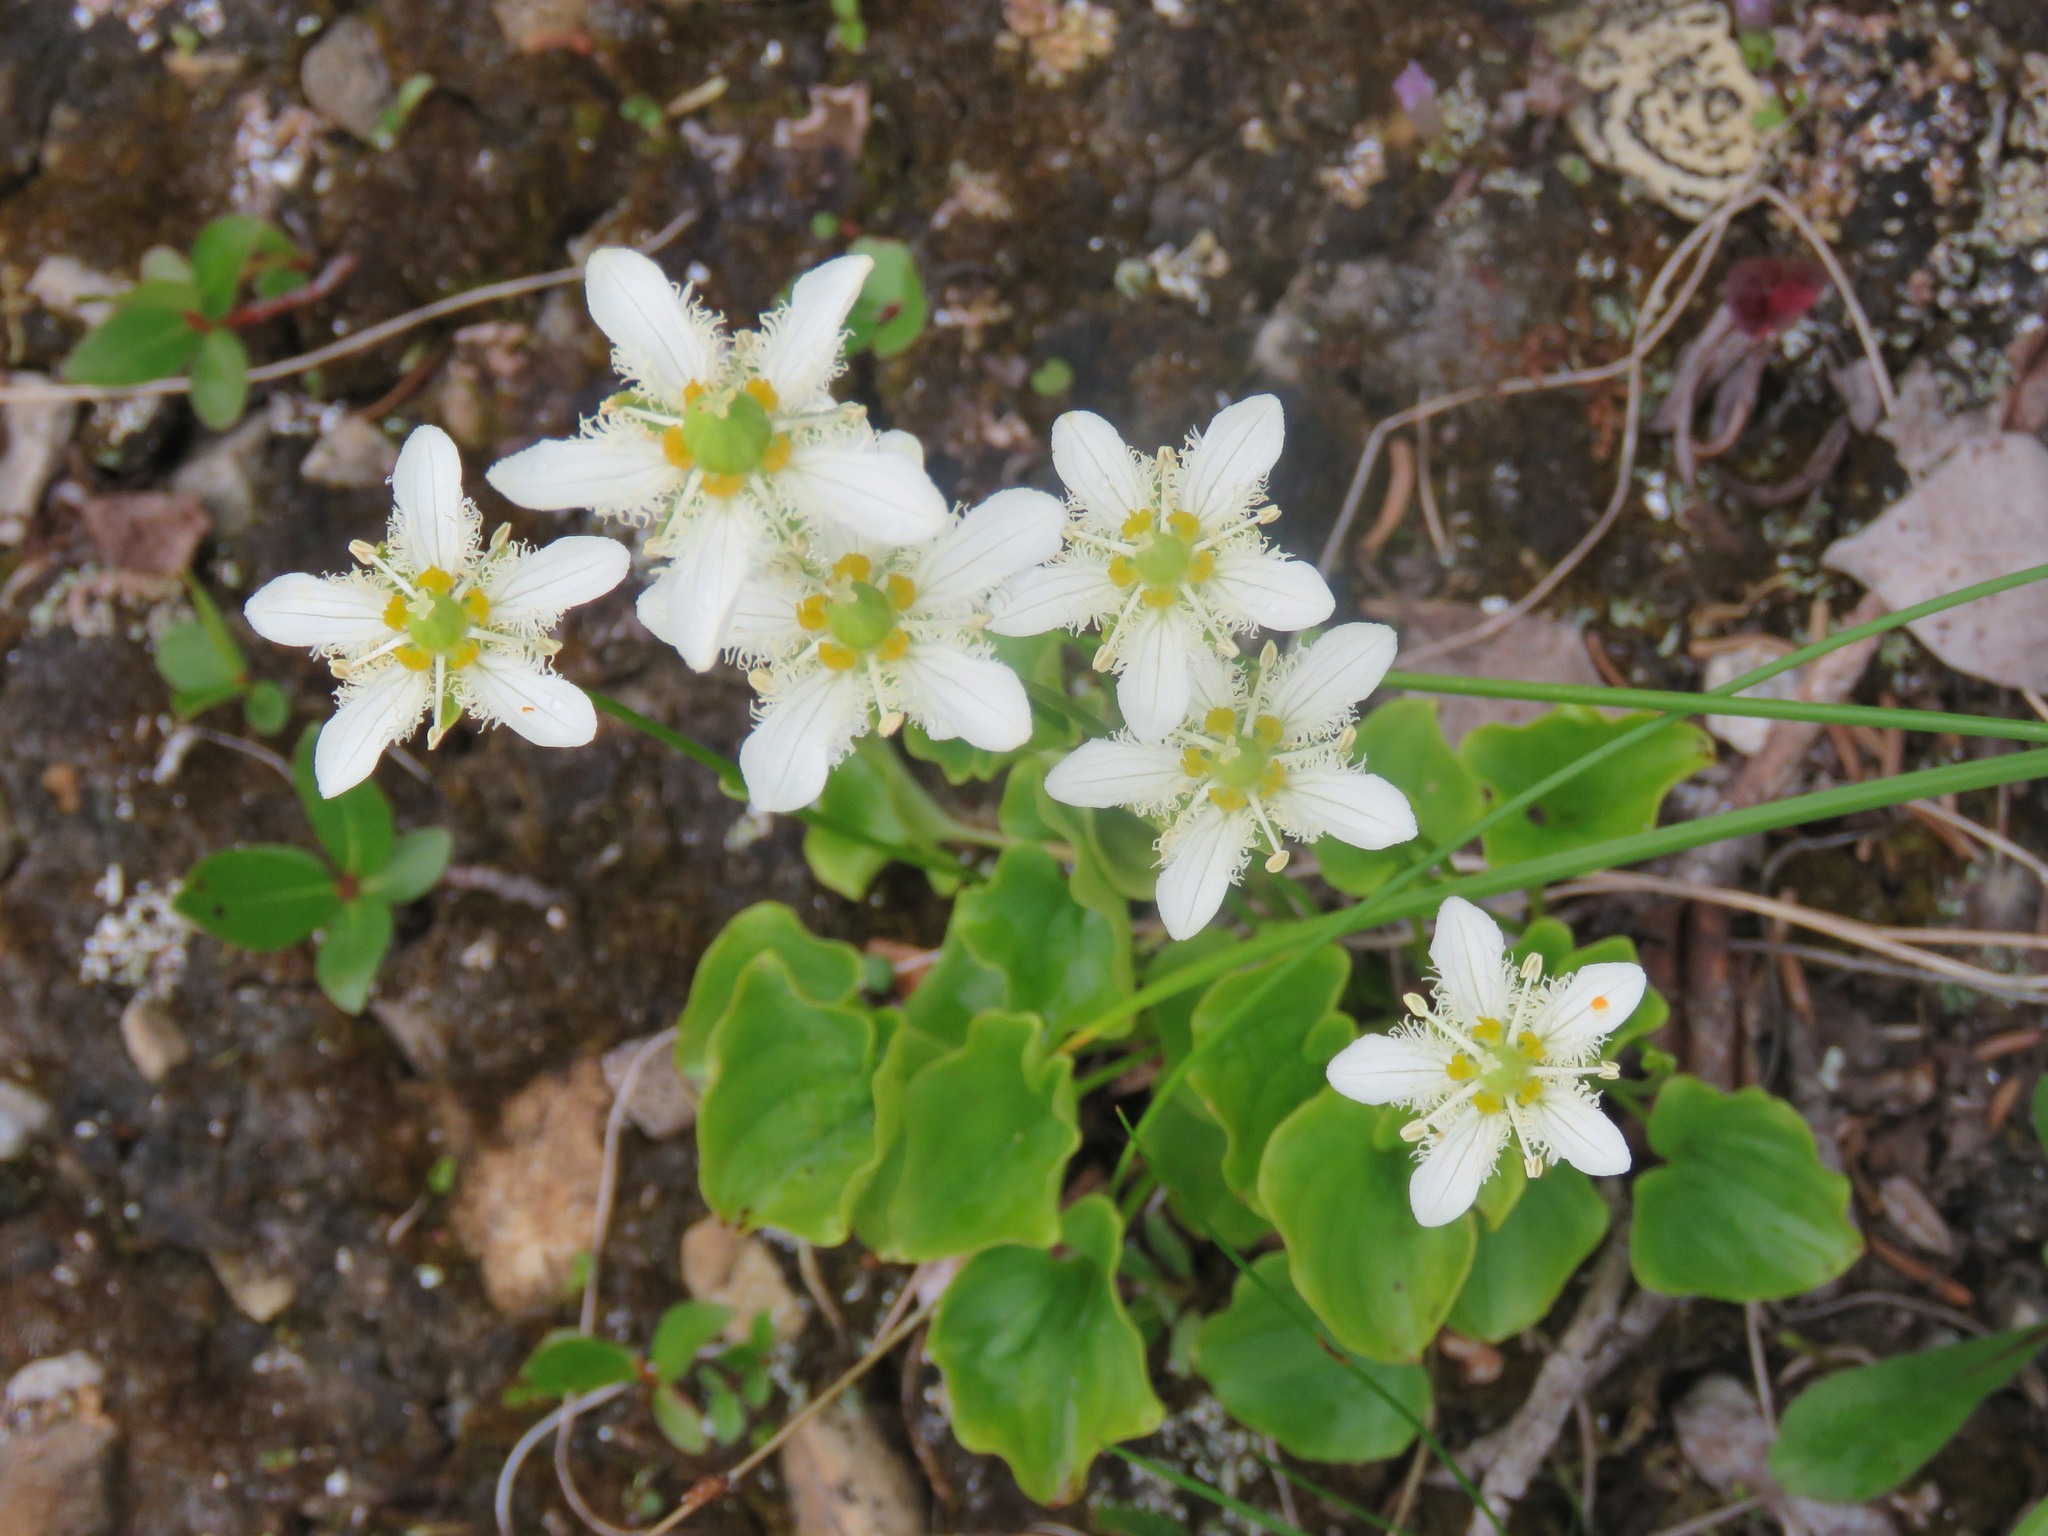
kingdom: Plantae
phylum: Tracheophyta
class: Magnoliopsida
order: Celastrales
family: Parnassiaceae
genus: Parnassia
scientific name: Parnassia fimbriata
